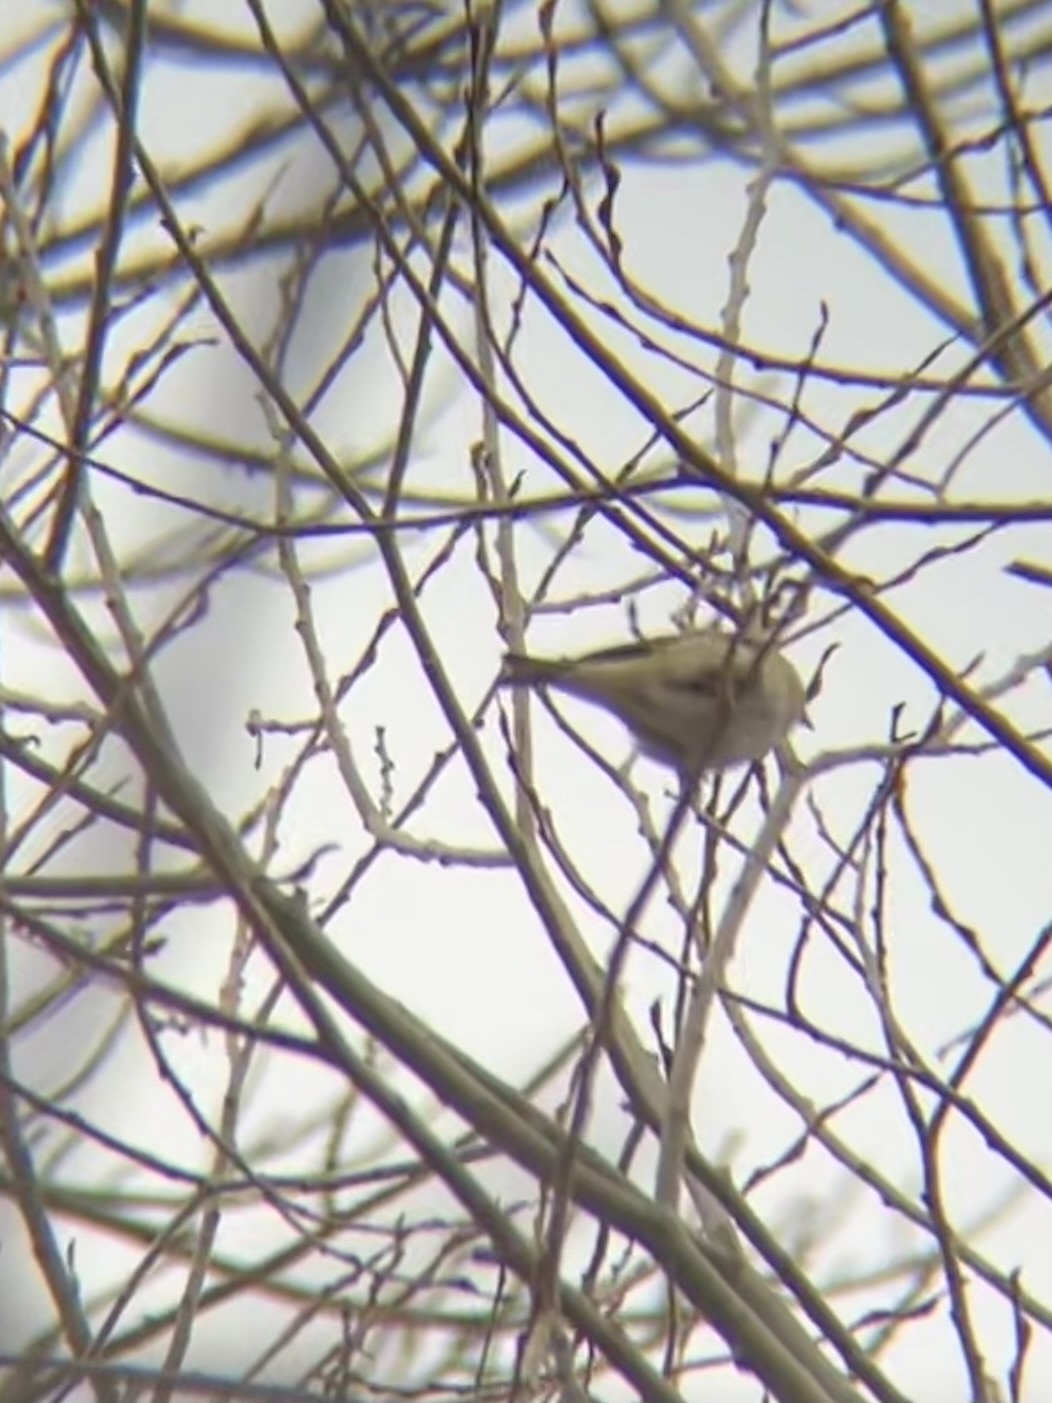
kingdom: Animalia
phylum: Chordata
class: Aves
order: Passeriformes
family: Fringillidae
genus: Spinus
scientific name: Spinus tristis
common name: American goldfinch
